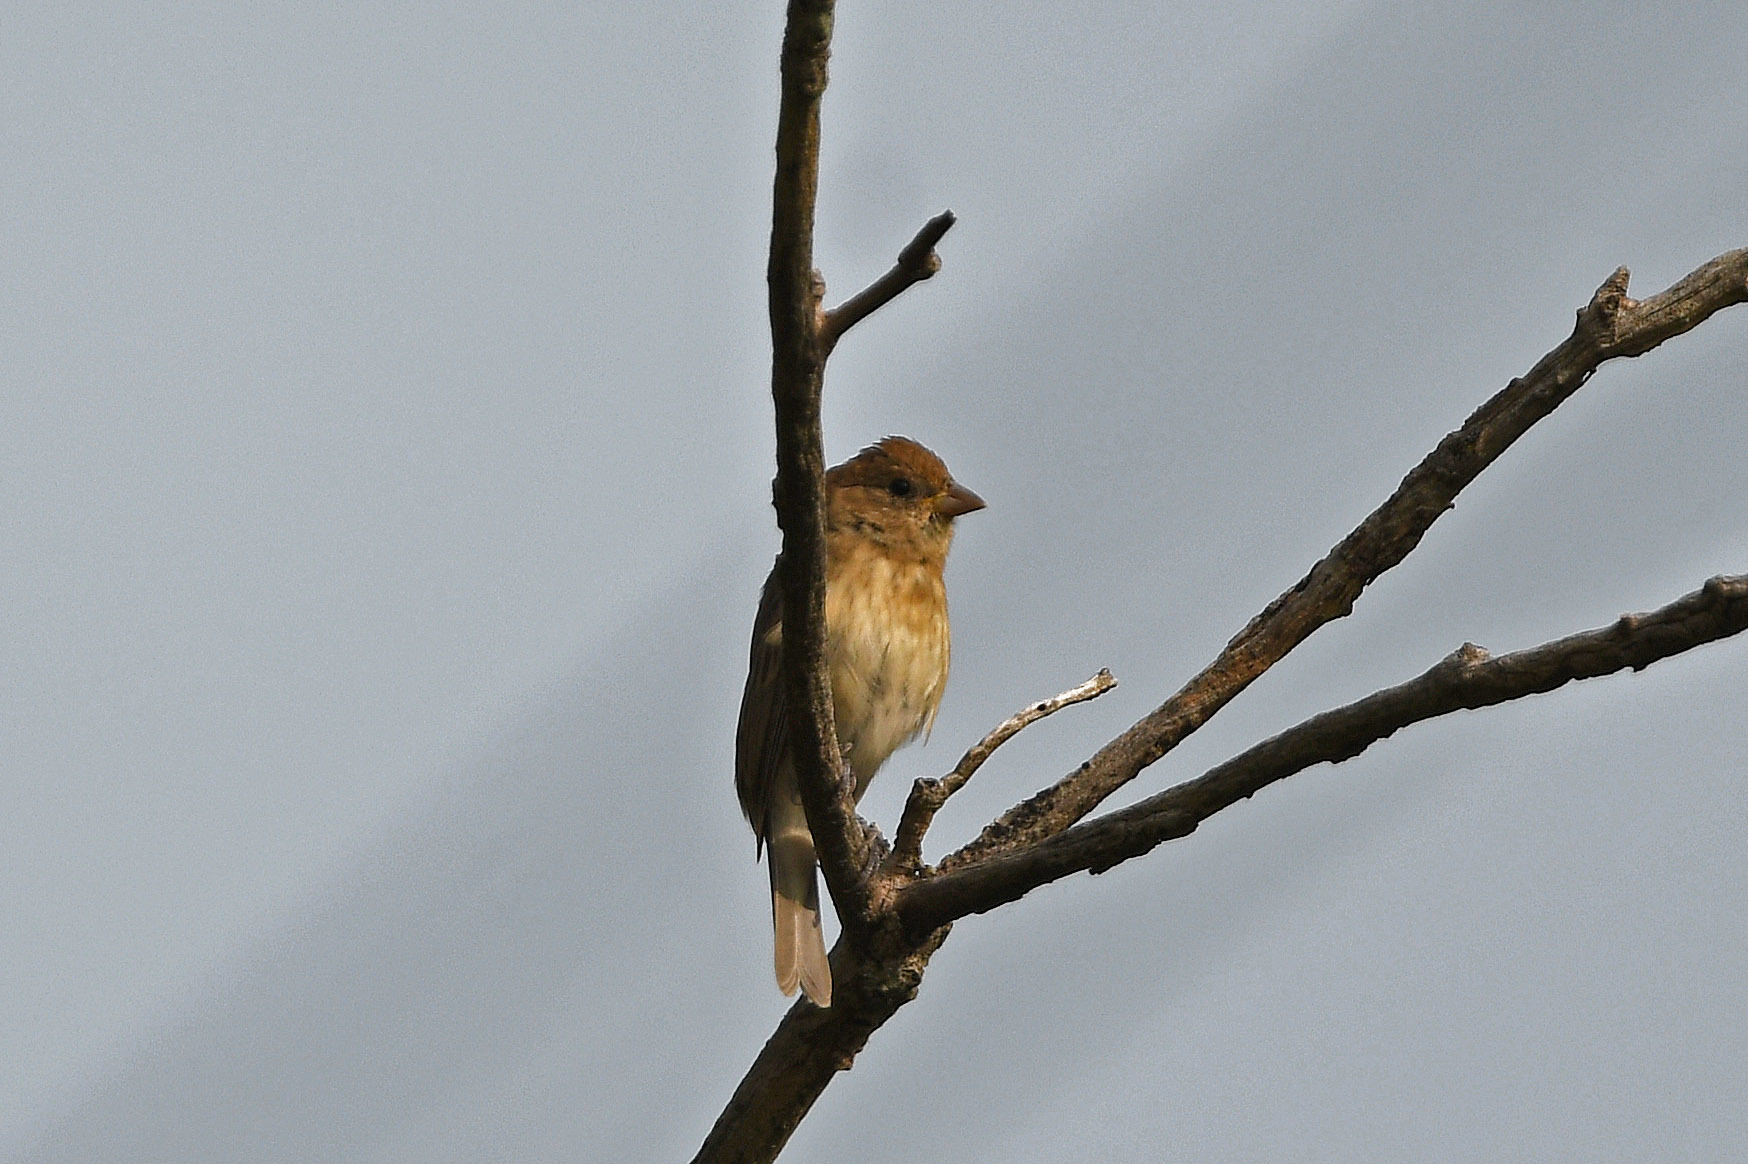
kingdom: Animalia
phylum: Chordata
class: Aves
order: Passeriformes
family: Cardinalidae
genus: Passerina
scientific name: Passerina cyanea
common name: Indigo bunting
